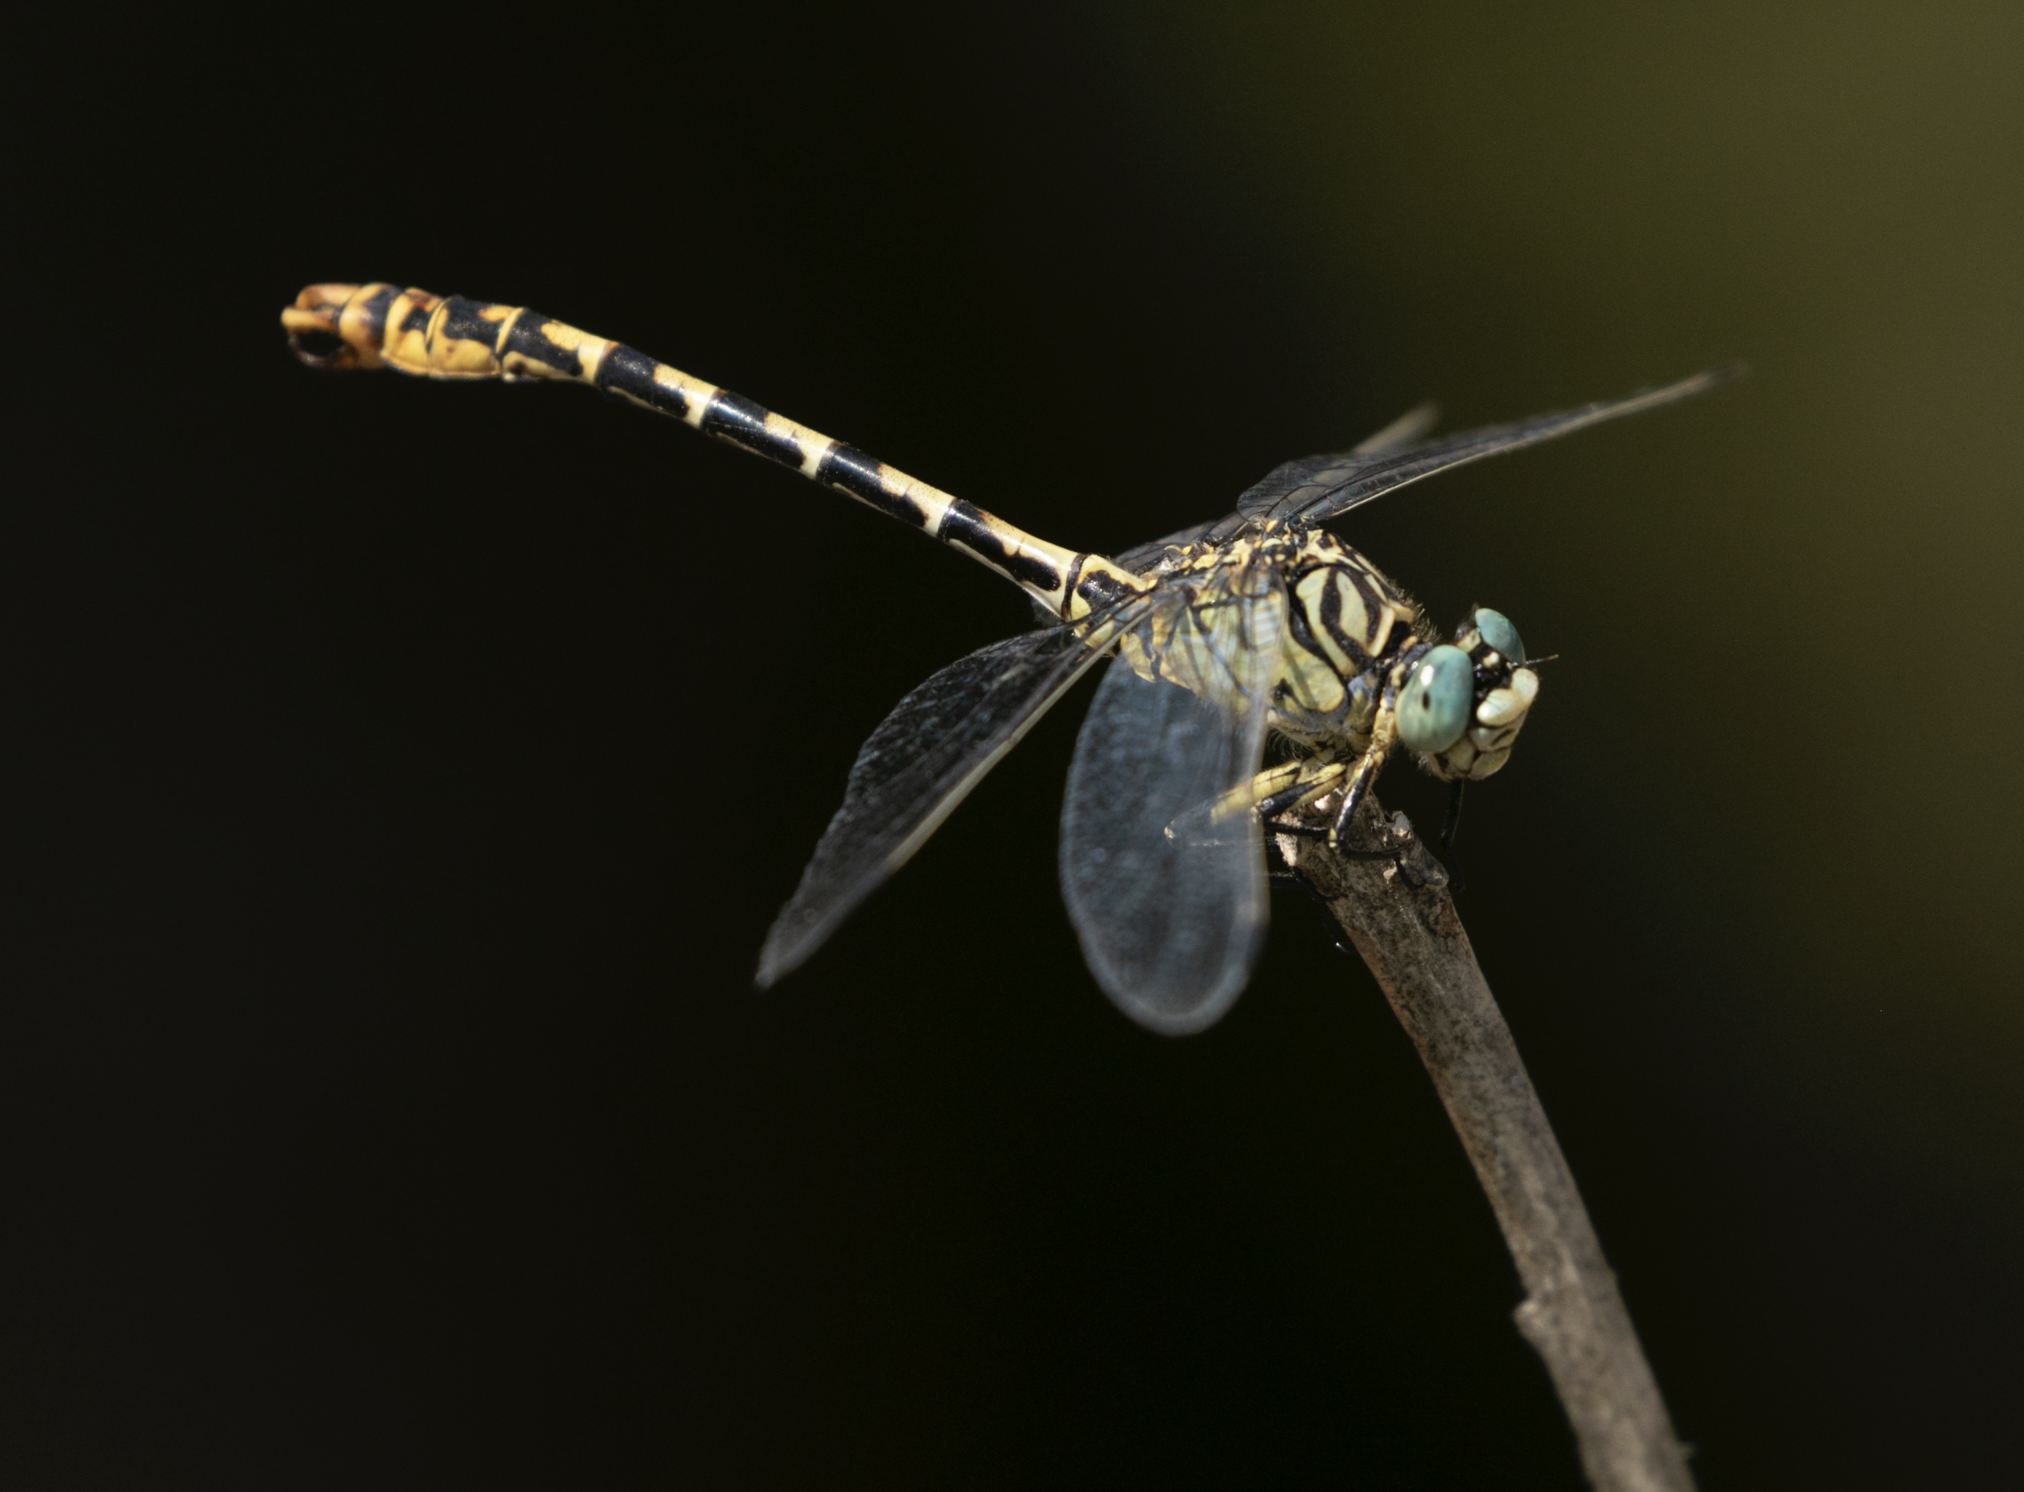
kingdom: Animalia
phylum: Arthropoda
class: Insecta
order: Odonata
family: Gomphidae
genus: Onychogomphus
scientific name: Onychogomphus forcipatus
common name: Small pincertail
